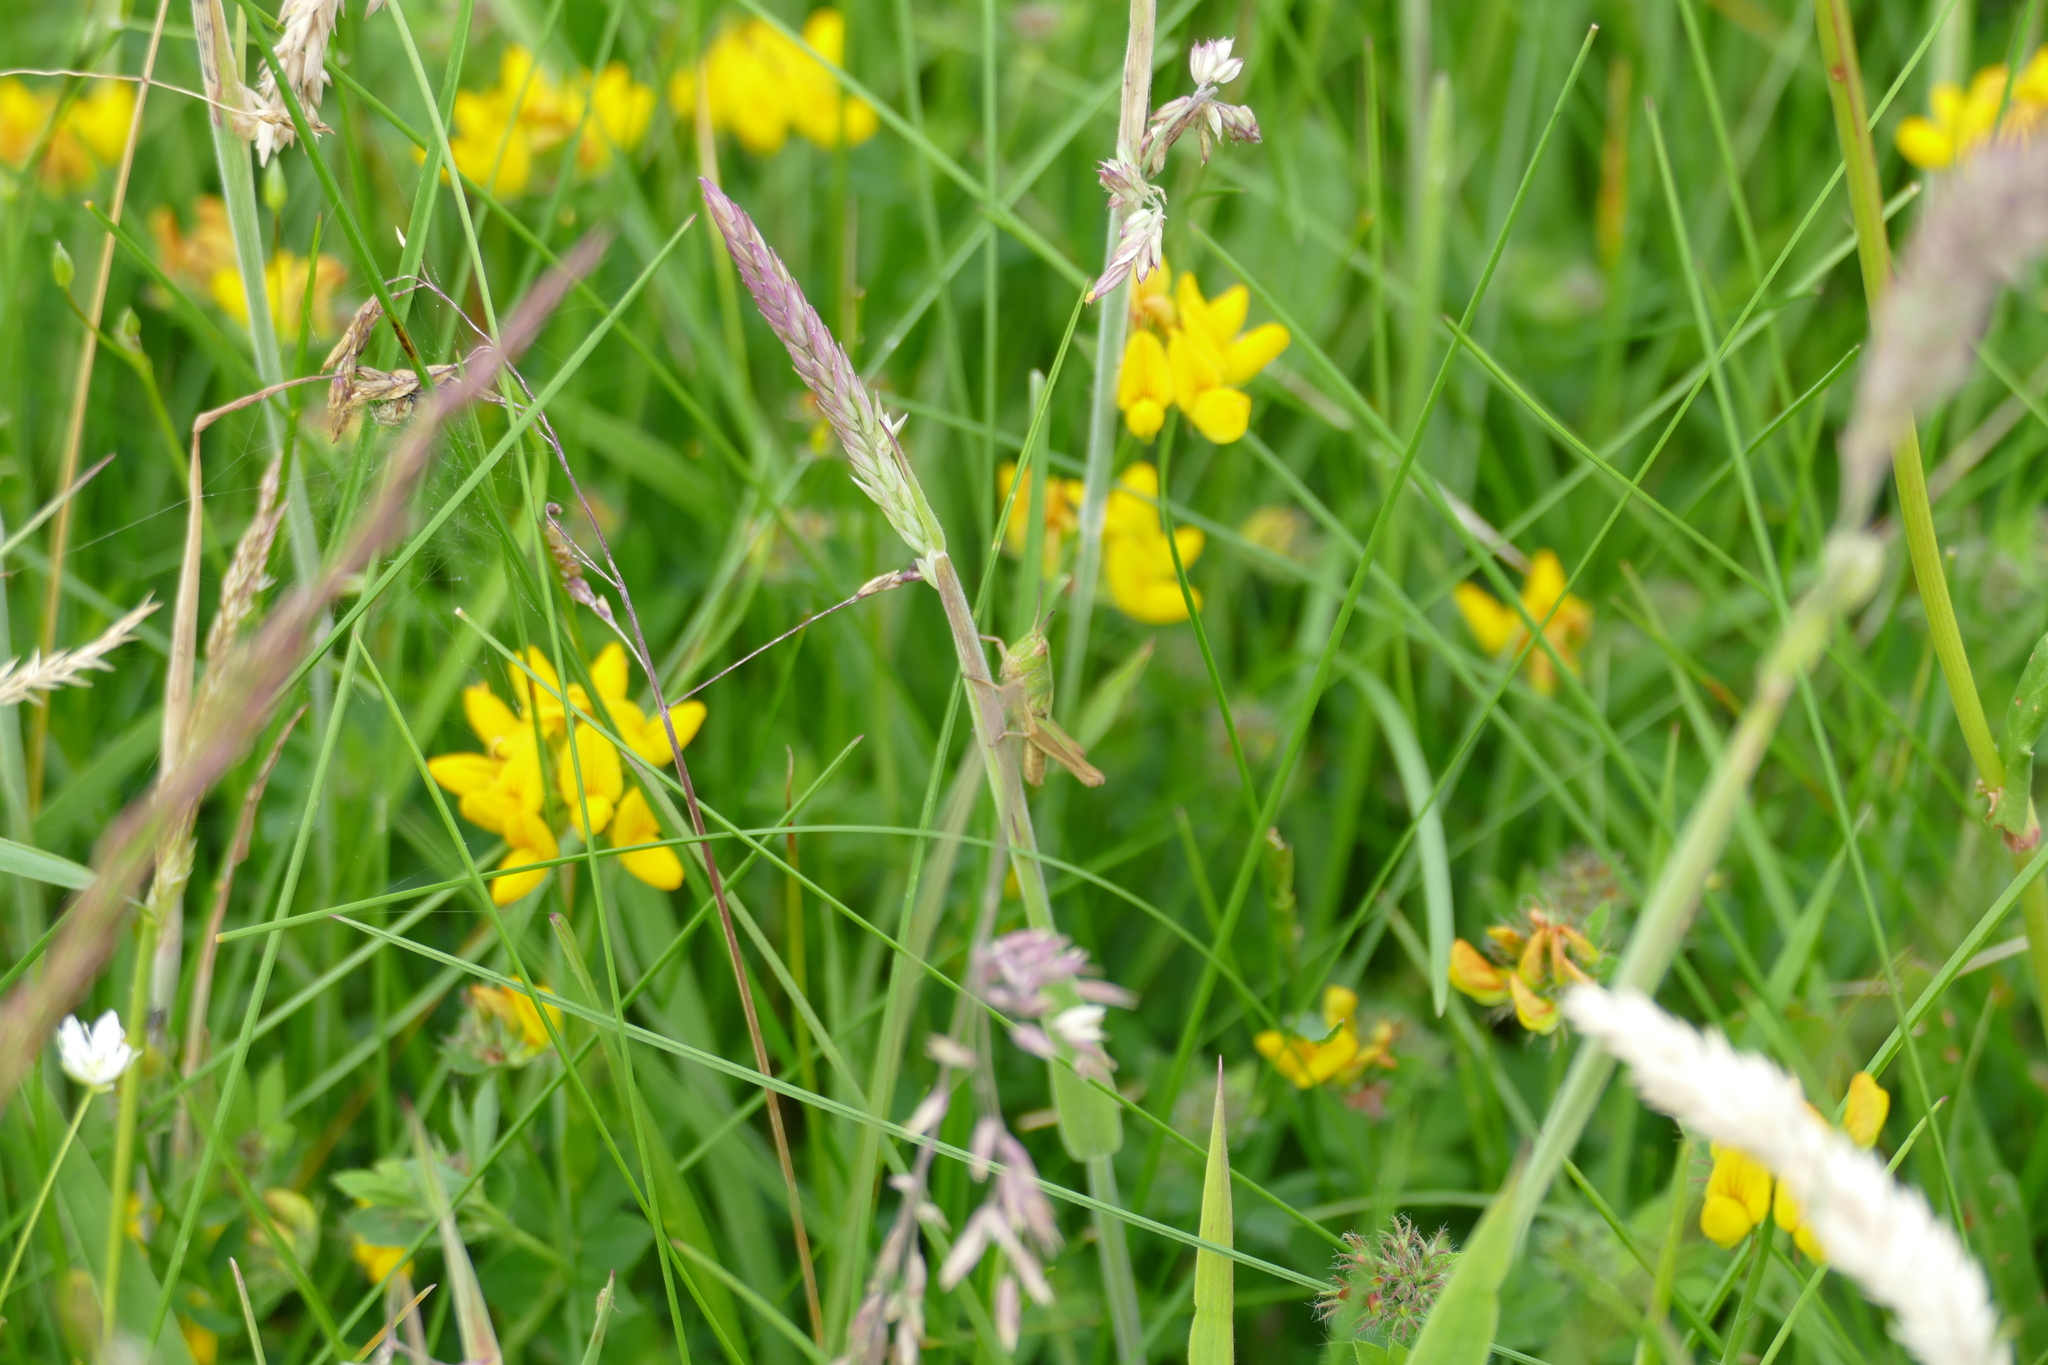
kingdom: Animalia
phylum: Arthropoda
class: Insecta
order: Orthoptera
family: Acrididae
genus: Pseudochorthippus
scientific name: Pseudochorthippus parallelus
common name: Meadow grasshopper
